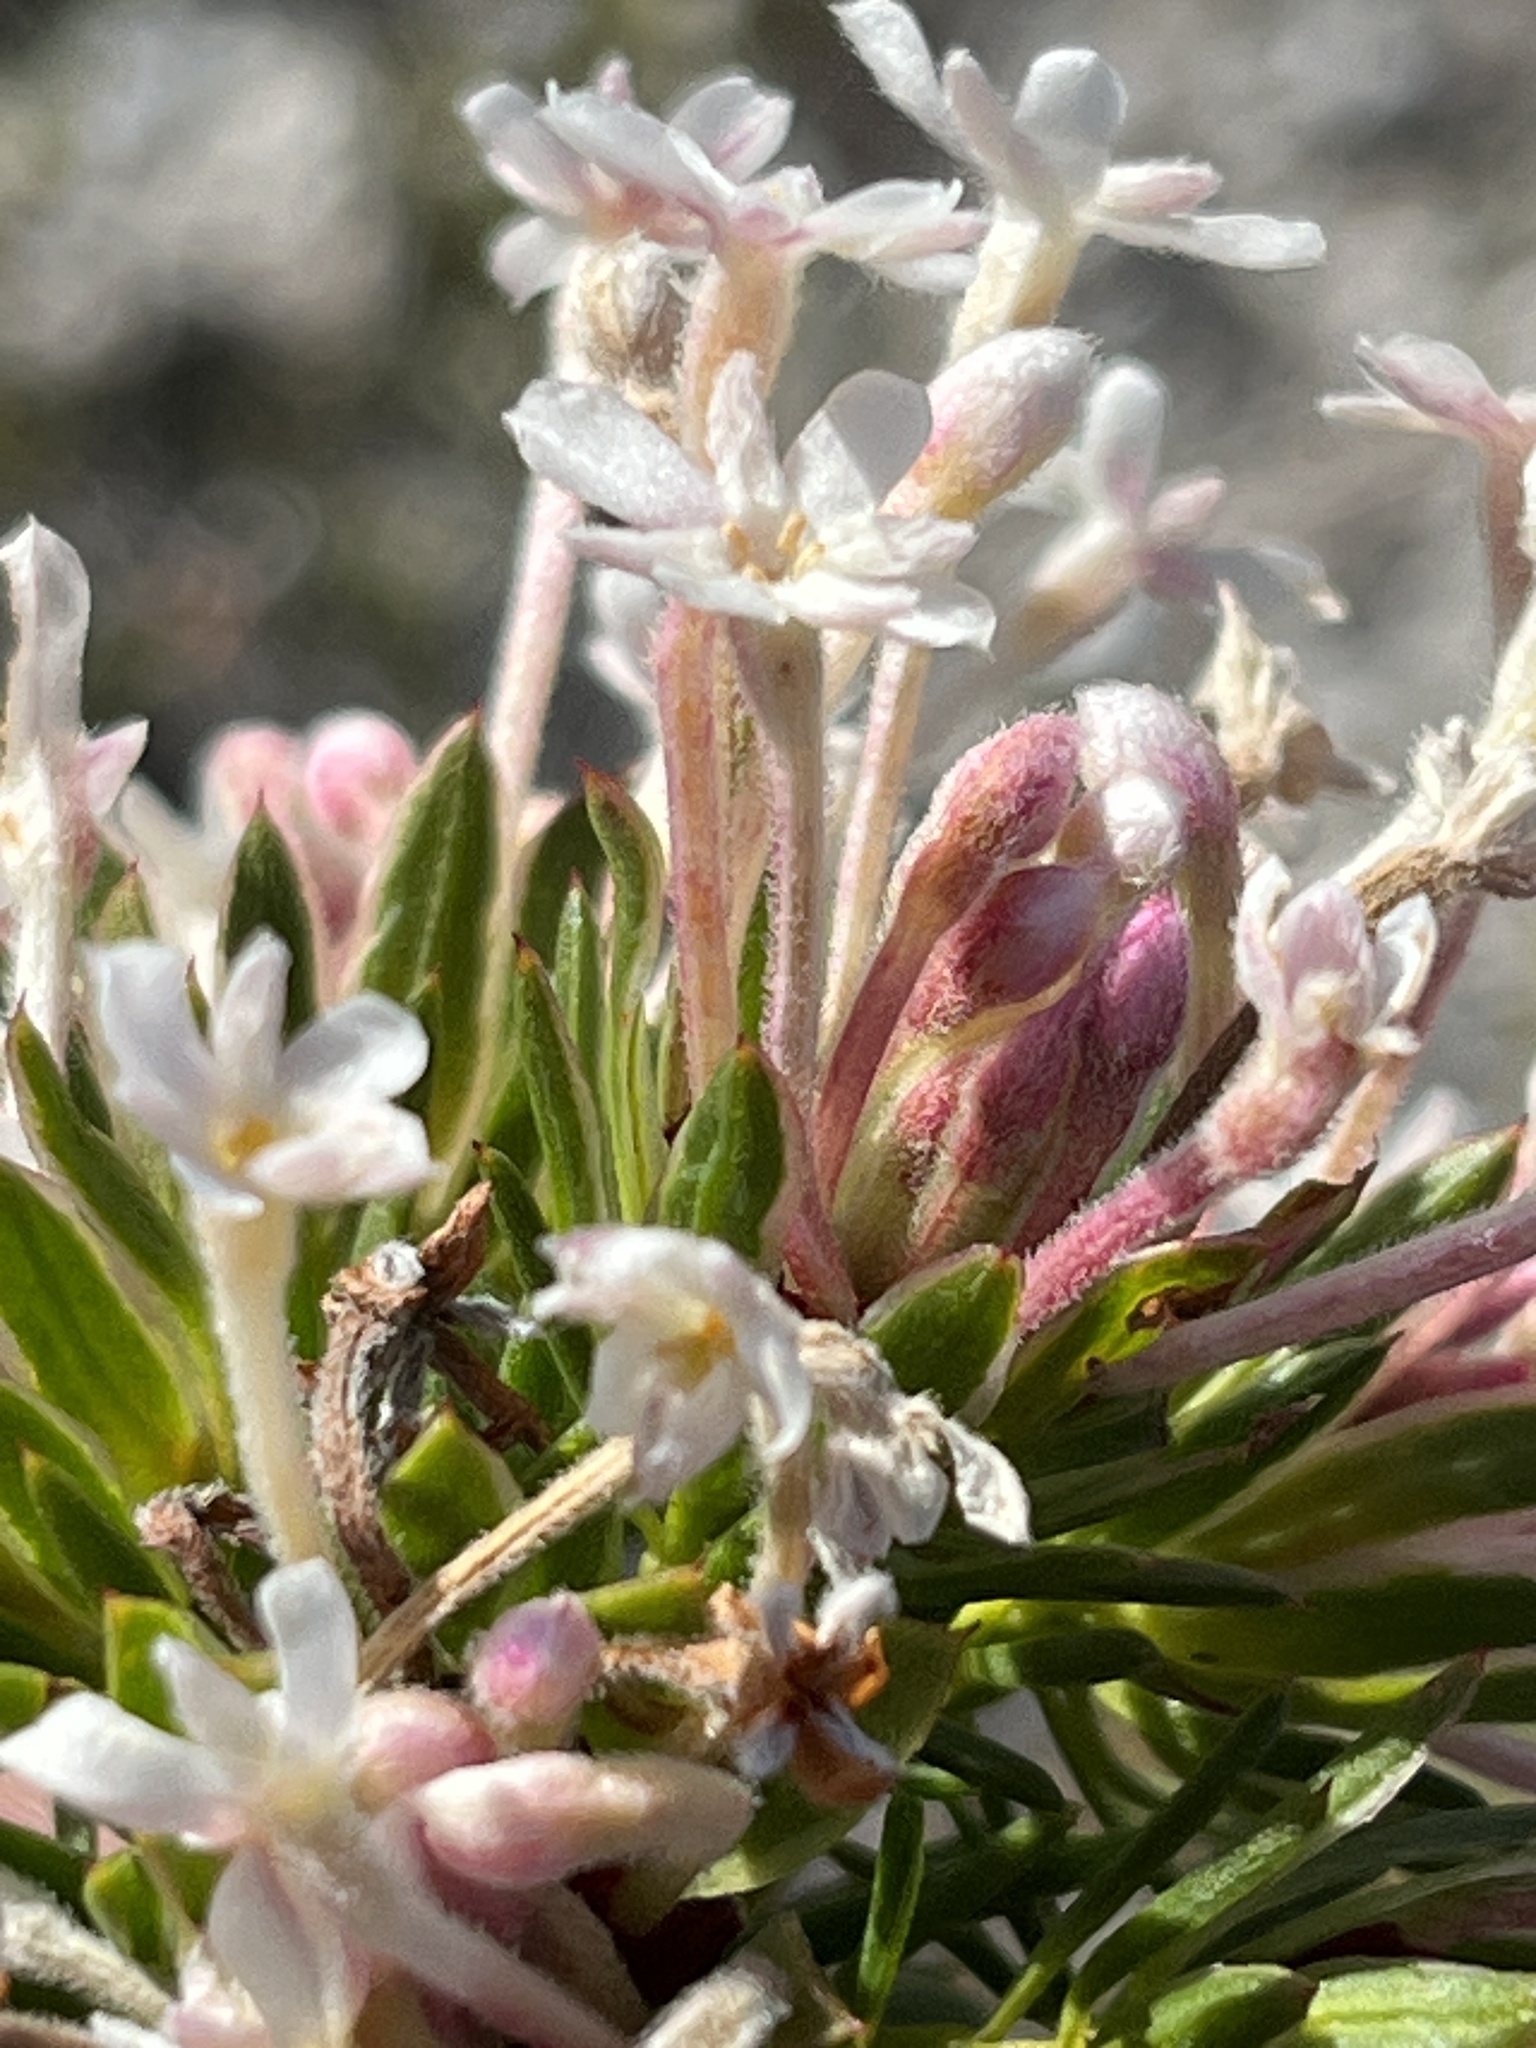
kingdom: Plantae
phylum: Tracheophyta
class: Magnoliopsida
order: Malvales
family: Thymelaeaceae
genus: Gnidia
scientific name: Gnidia pinifolia
